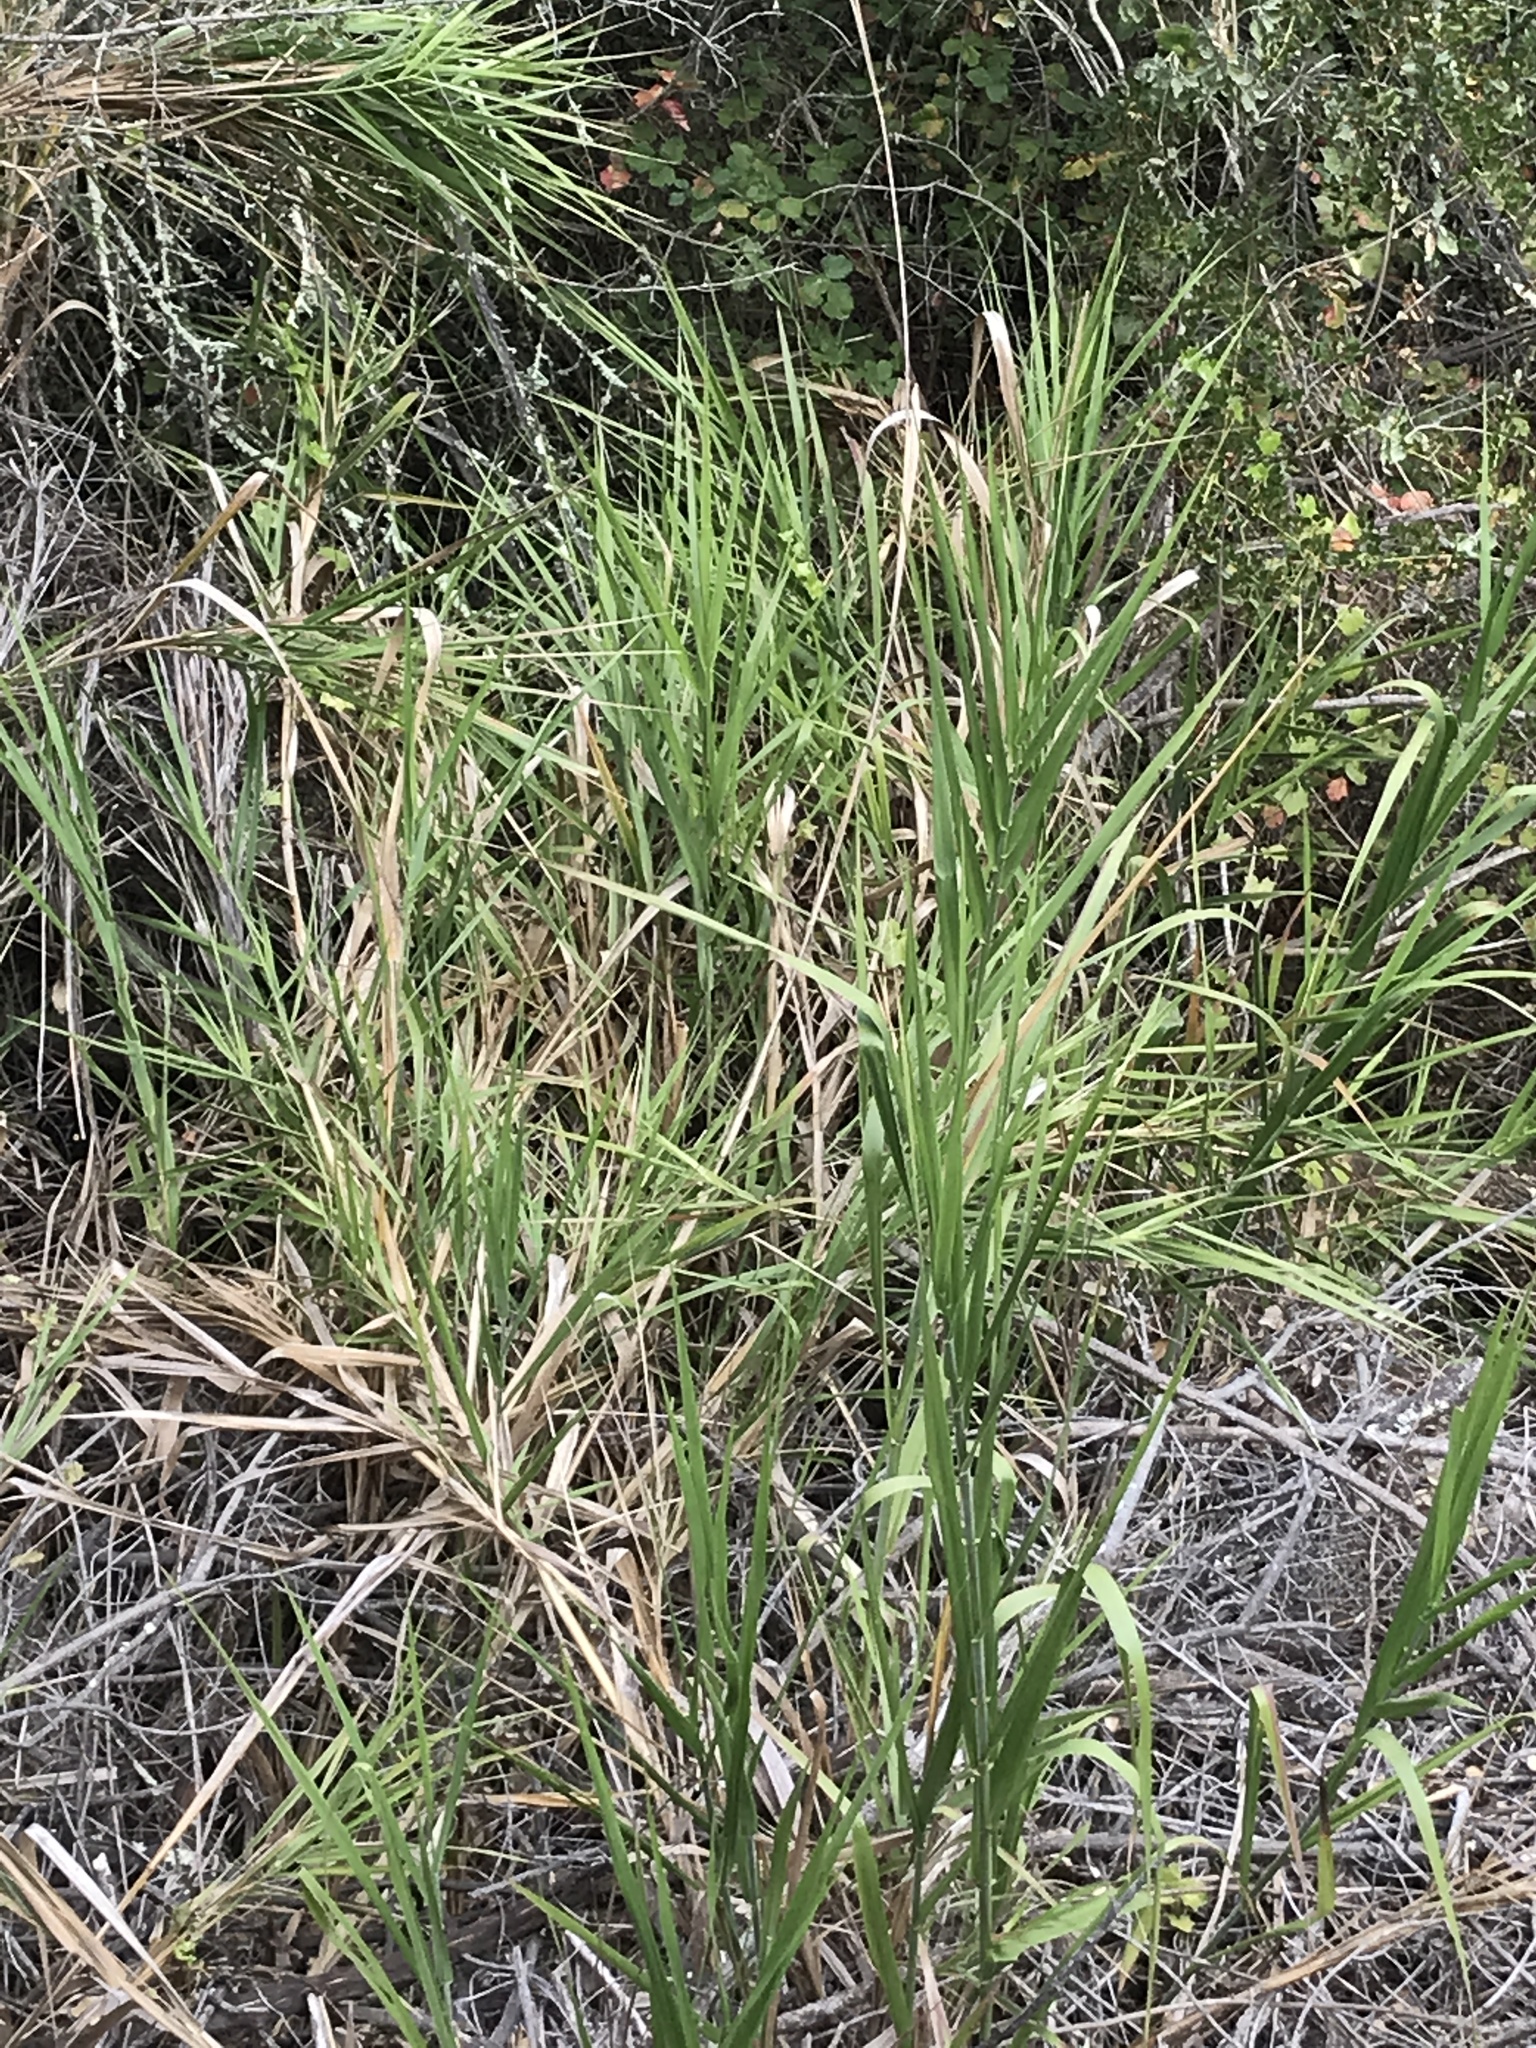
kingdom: Plantae
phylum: Tracheophyta
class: Liliopsida
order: Poales
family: Poaceae
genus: Leymus
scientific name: Leymus condensatus
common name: Giant wild rye
